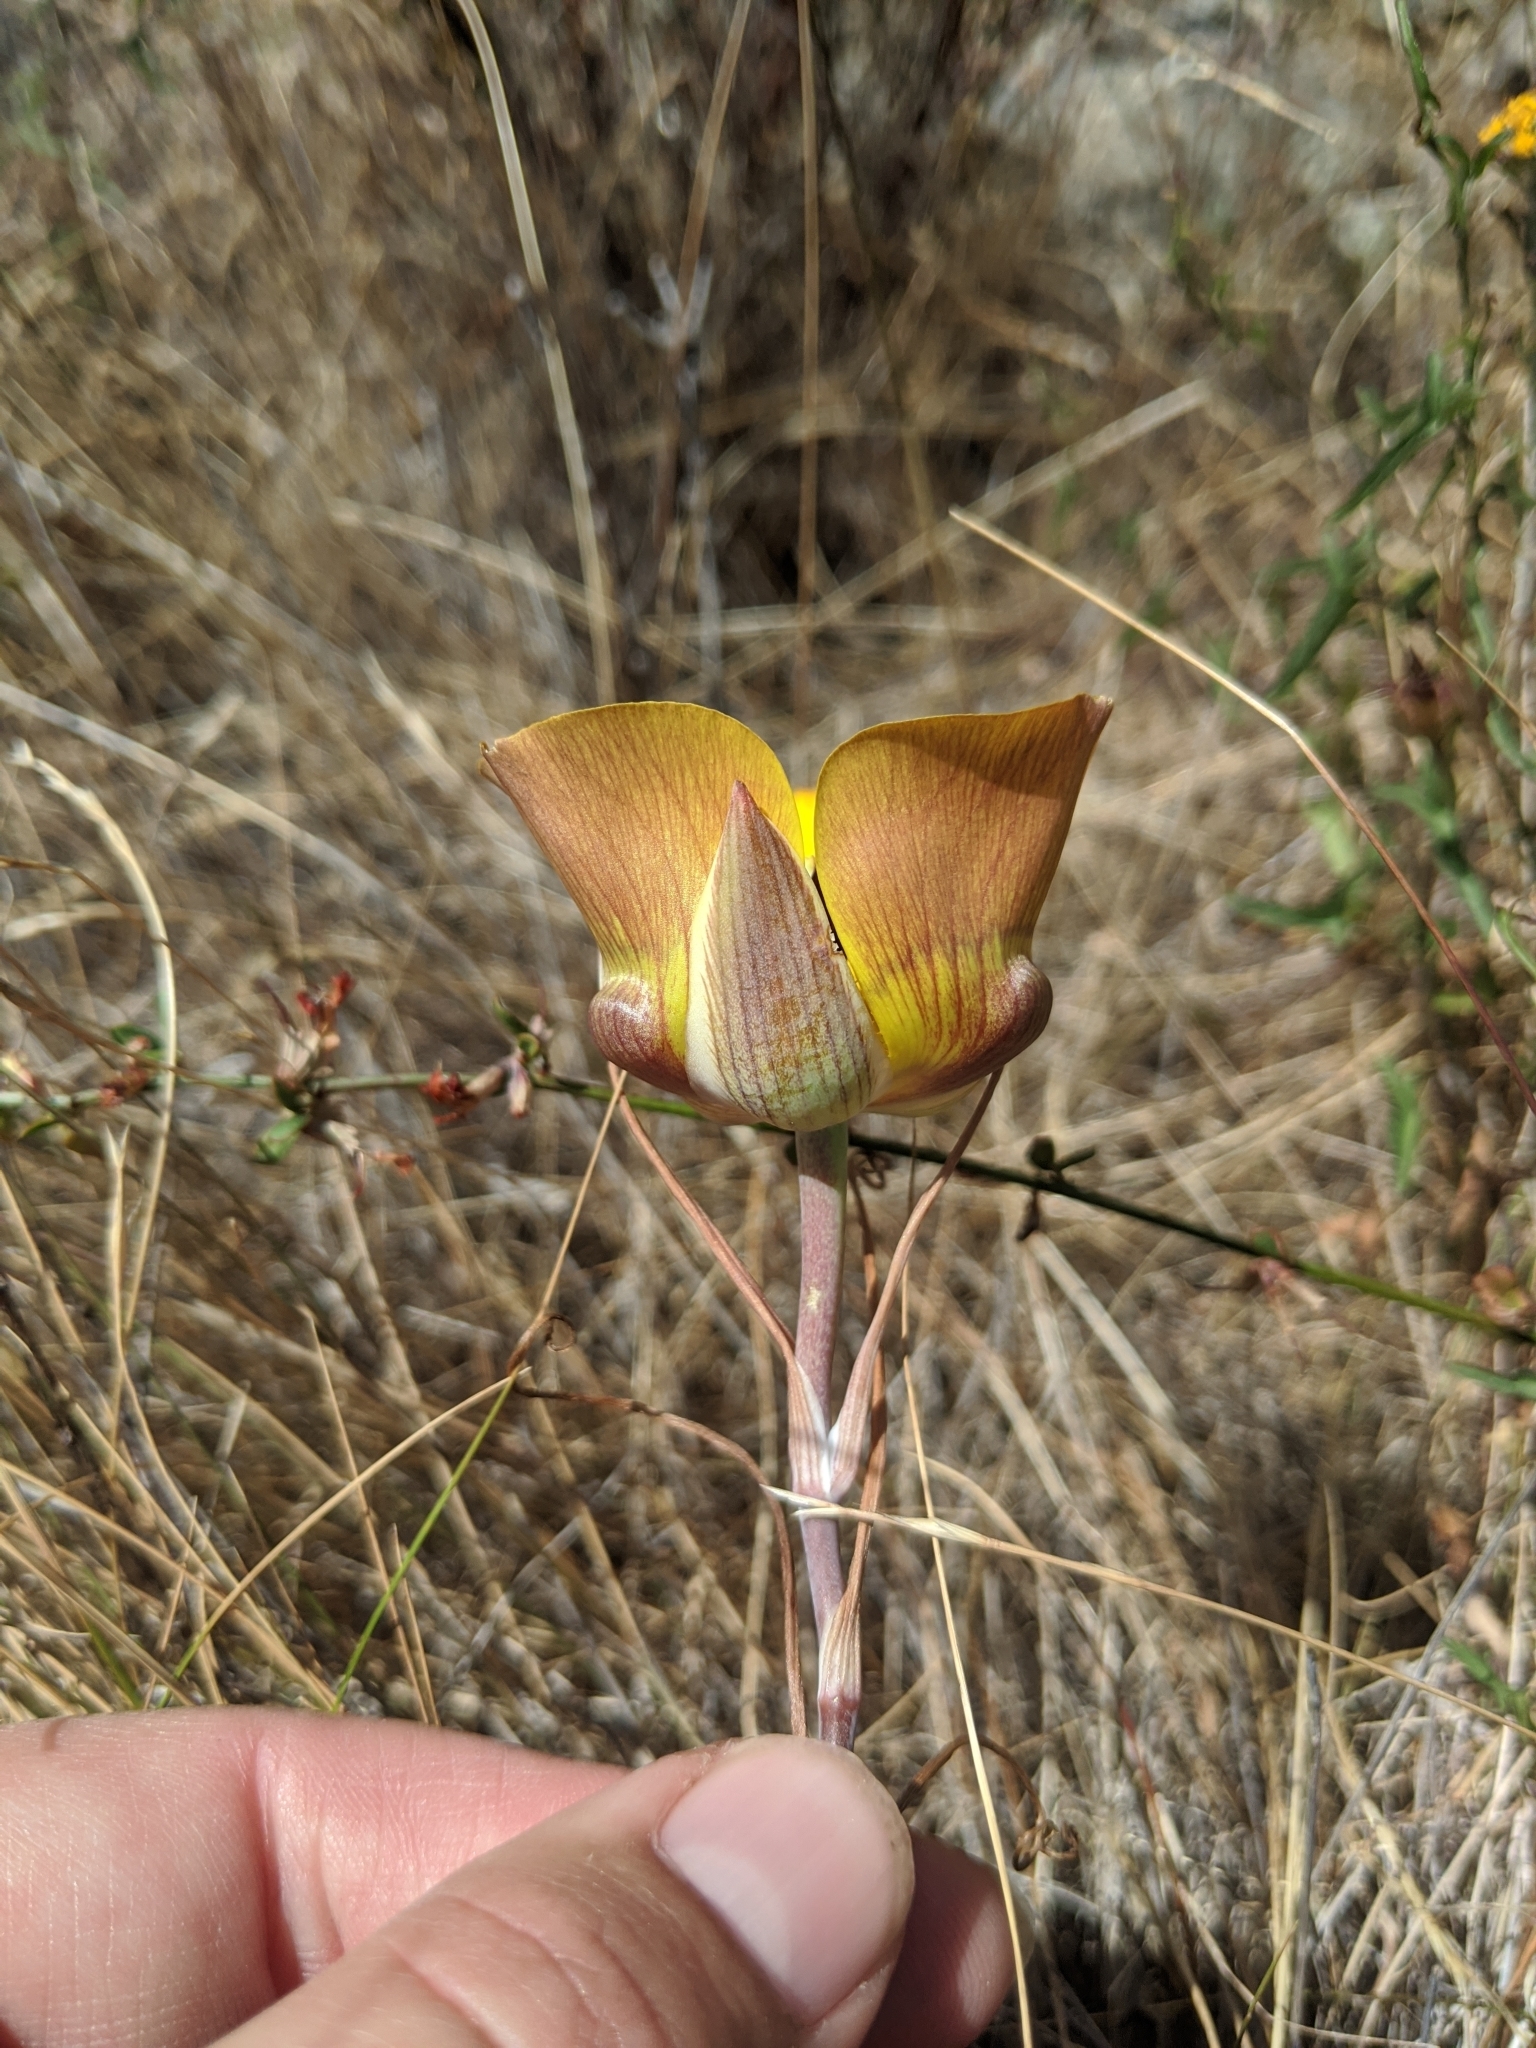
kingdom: Plantae
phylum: Tracheophyta
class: Liliopsida
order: Liliales
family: Liliaceae
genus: Calochortus
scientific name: Calochortus clavatus
